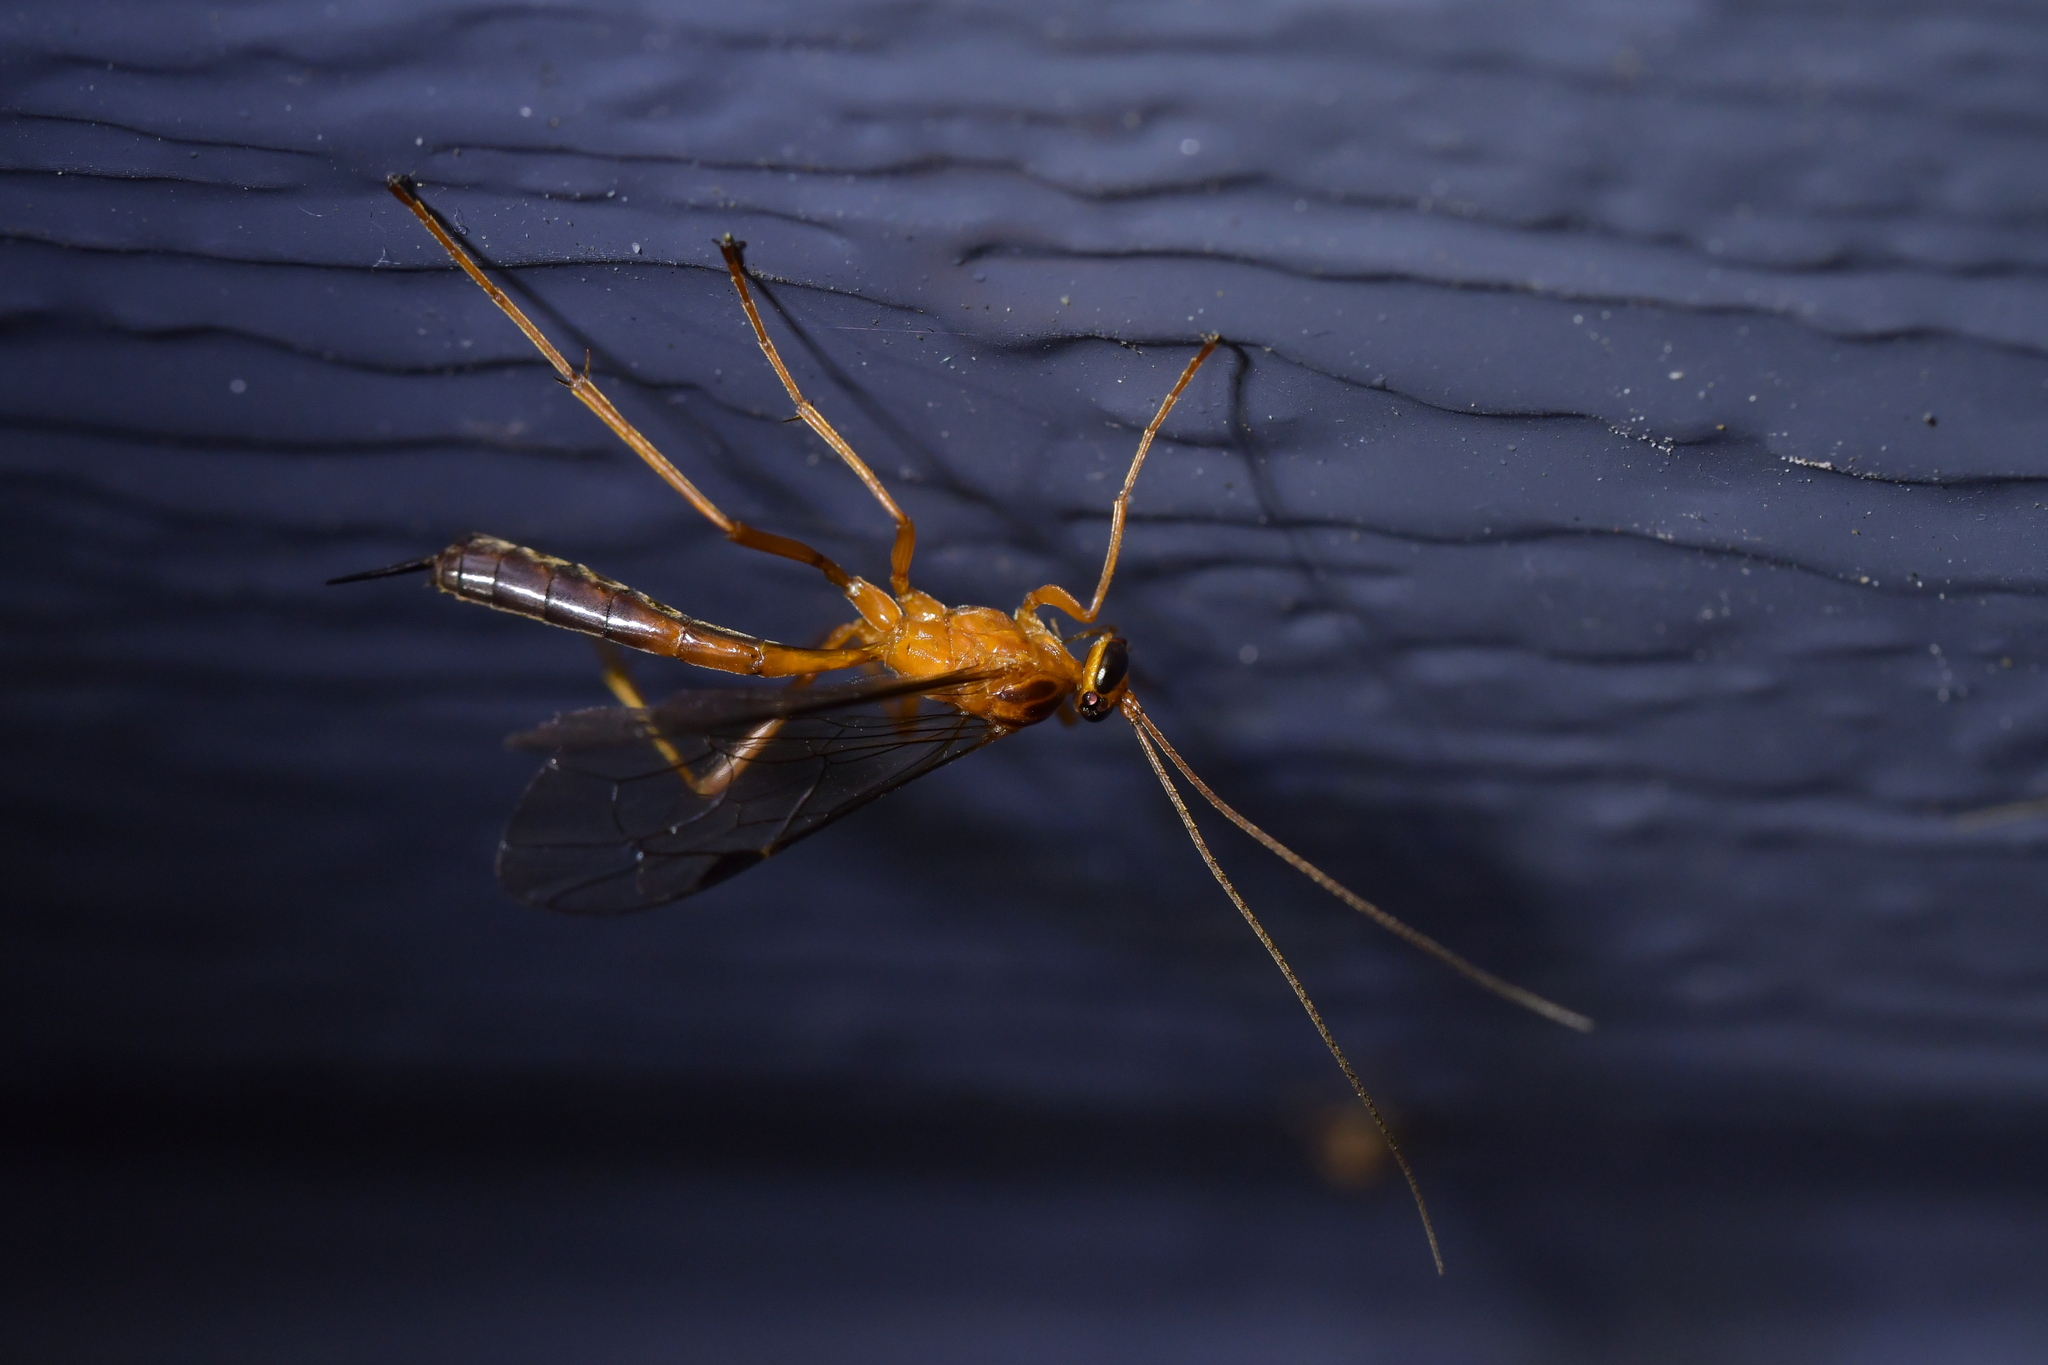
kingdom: Animalia
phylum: Arthropoda
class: Insecta
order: Hymenoptera
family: Ichneumonidae
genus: Netelia
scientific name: Netelia ephippiata
